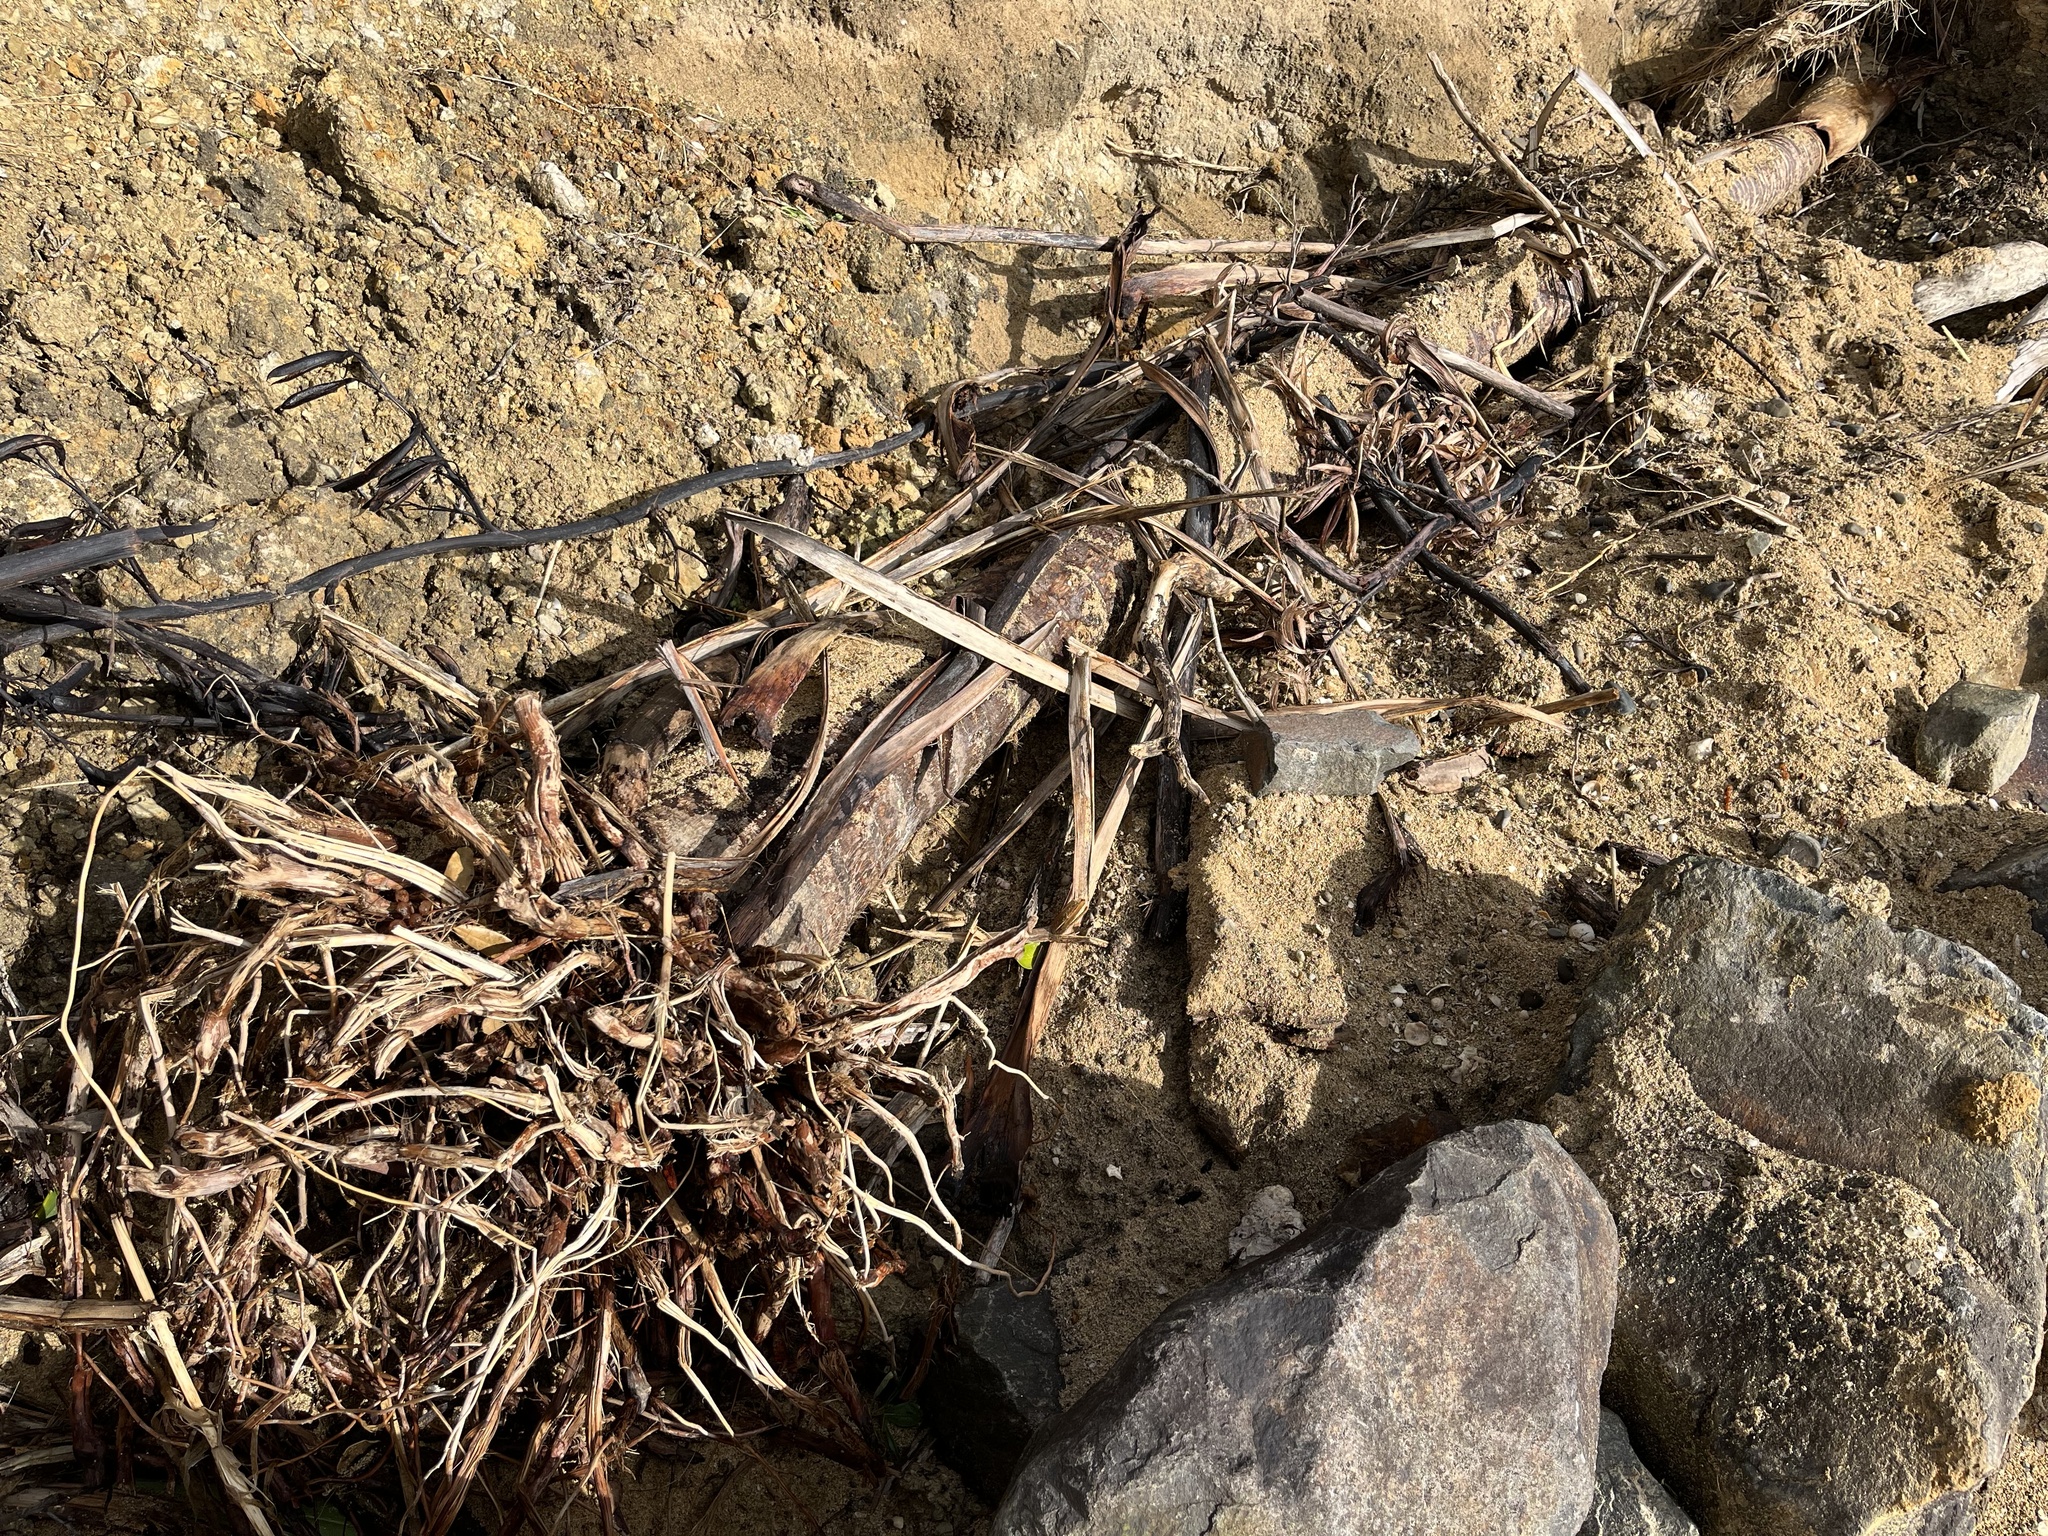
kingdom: Plantae
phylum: Tracheophyta
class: Liliopsida
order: Arecales
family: Arecaceae
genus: Rhopalostylis
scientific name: Rhopalostylis sapida
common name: Feather-duster palm
